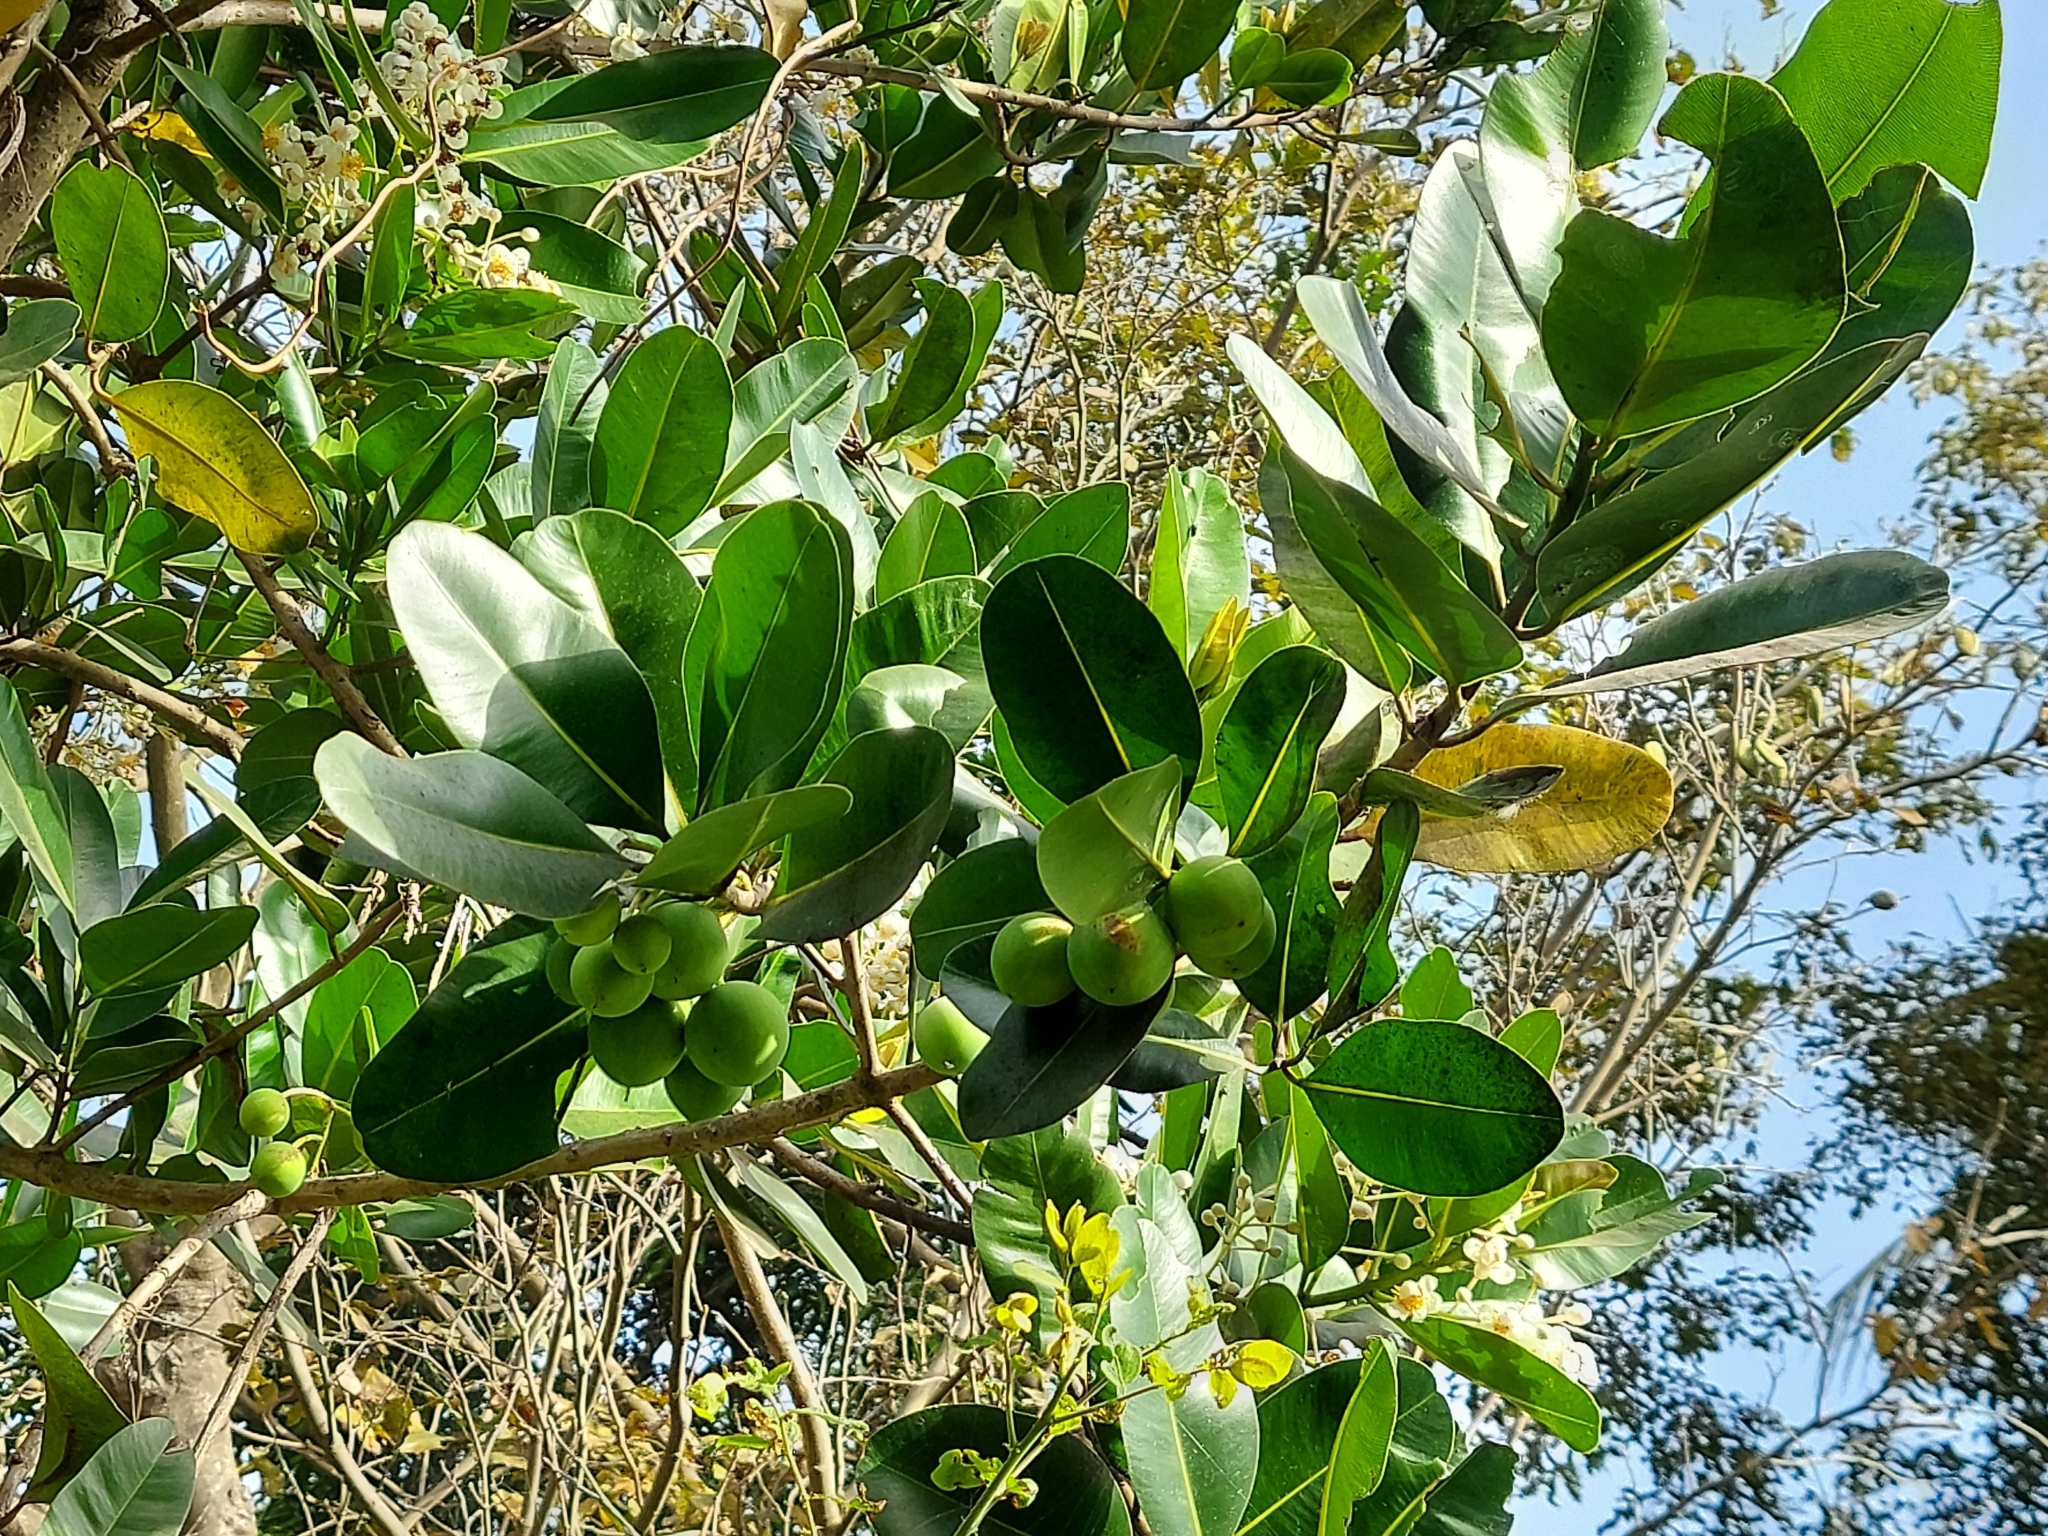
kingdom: Plantae
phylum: Tracheophyta
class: Magnoliopsida
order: Malpighiales
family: Calophyllaceae
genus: Calophyllum
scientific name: Calophyllum inophyllum
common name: Alexandrian laurel
